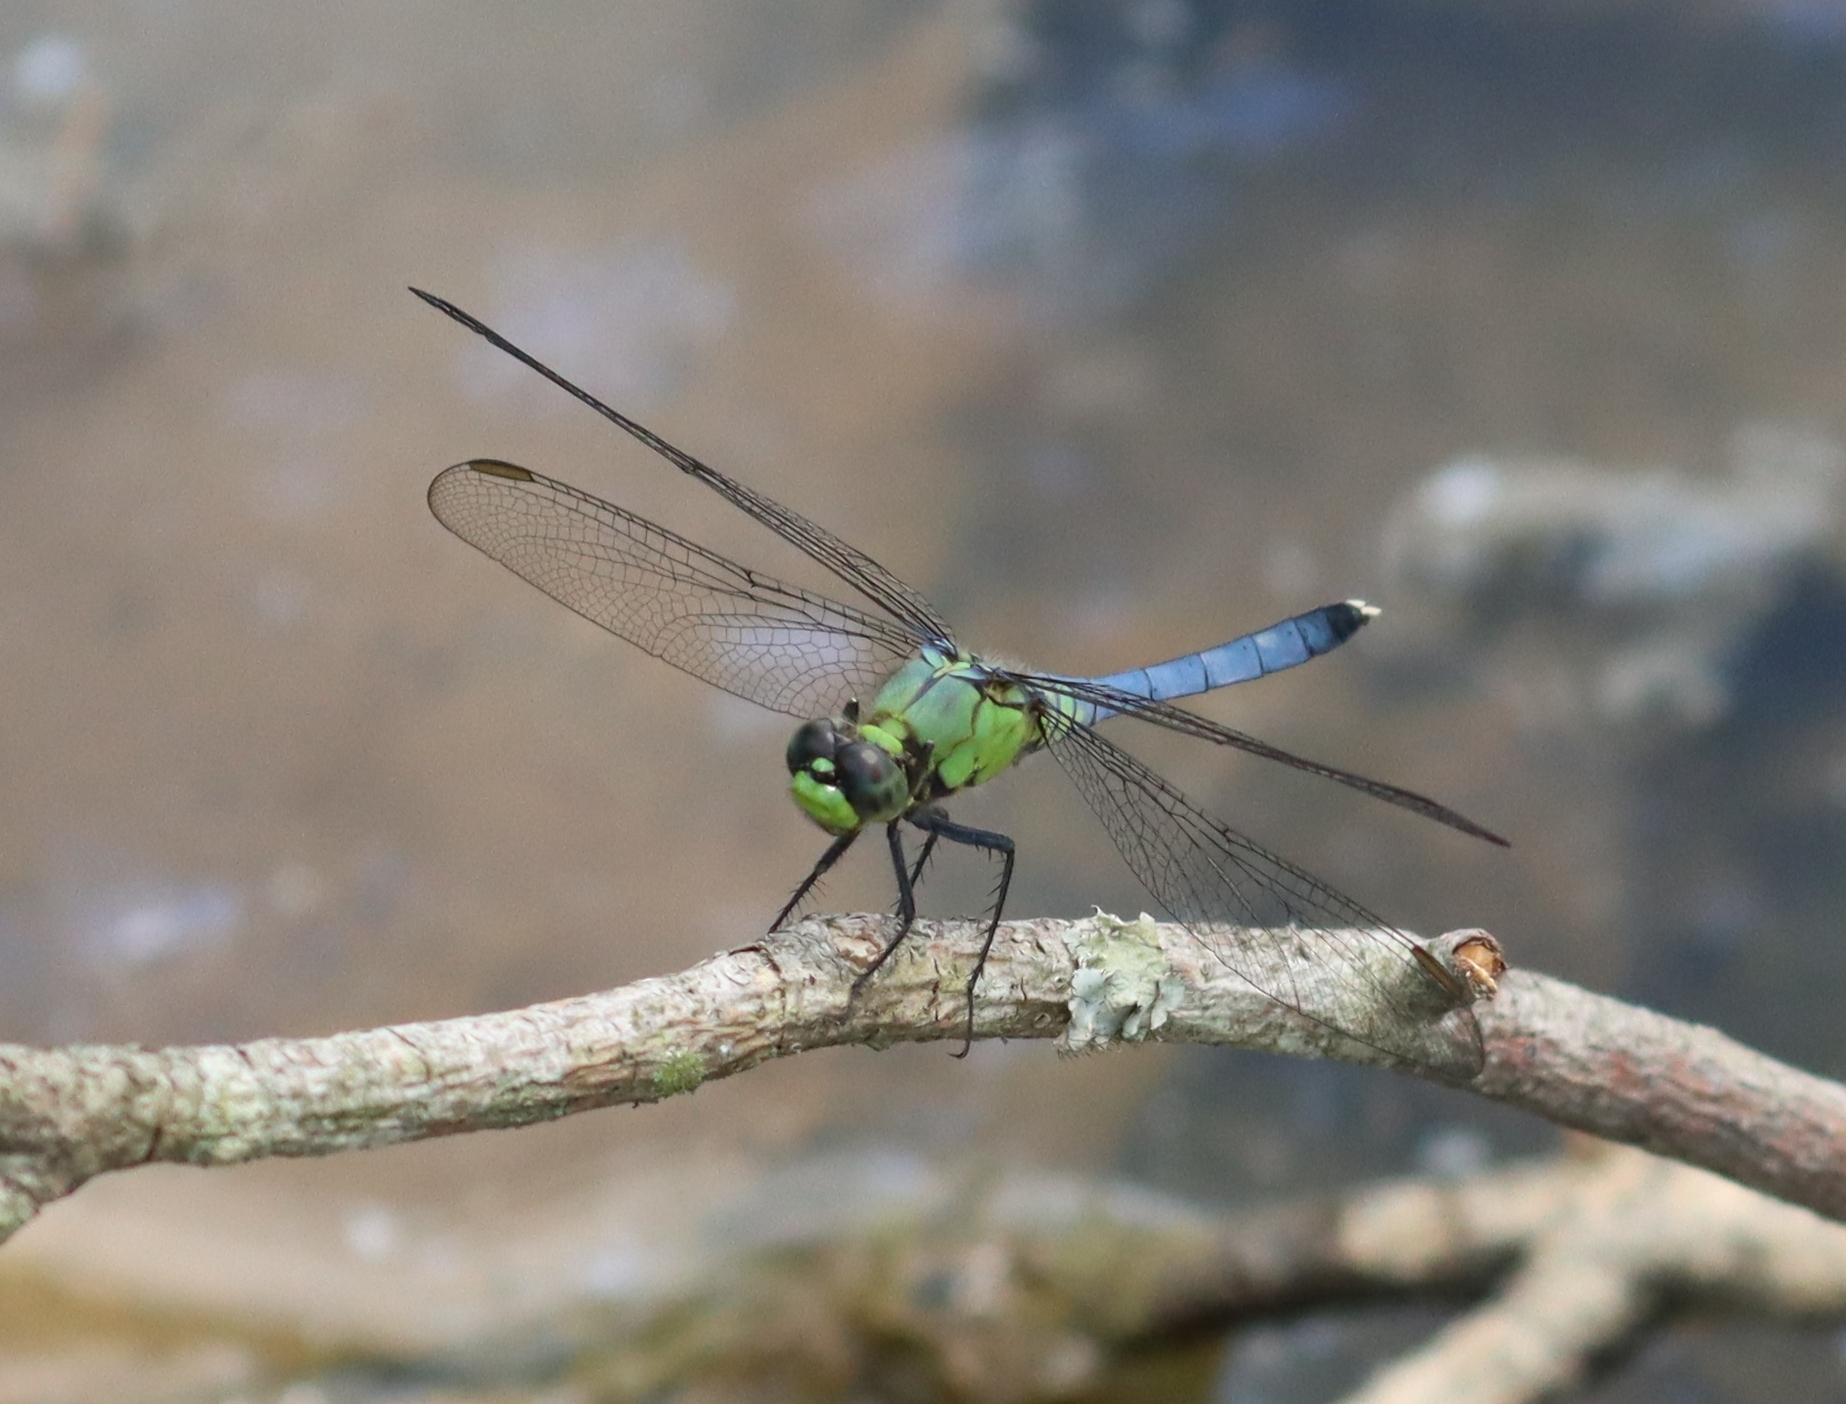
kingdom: Animalia
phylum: Arthropoda
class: Insecta
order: Odonata
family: Libellulidae
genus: Erythemis
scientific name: Erythemis simplicicollis
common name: Eastern pondhawk
